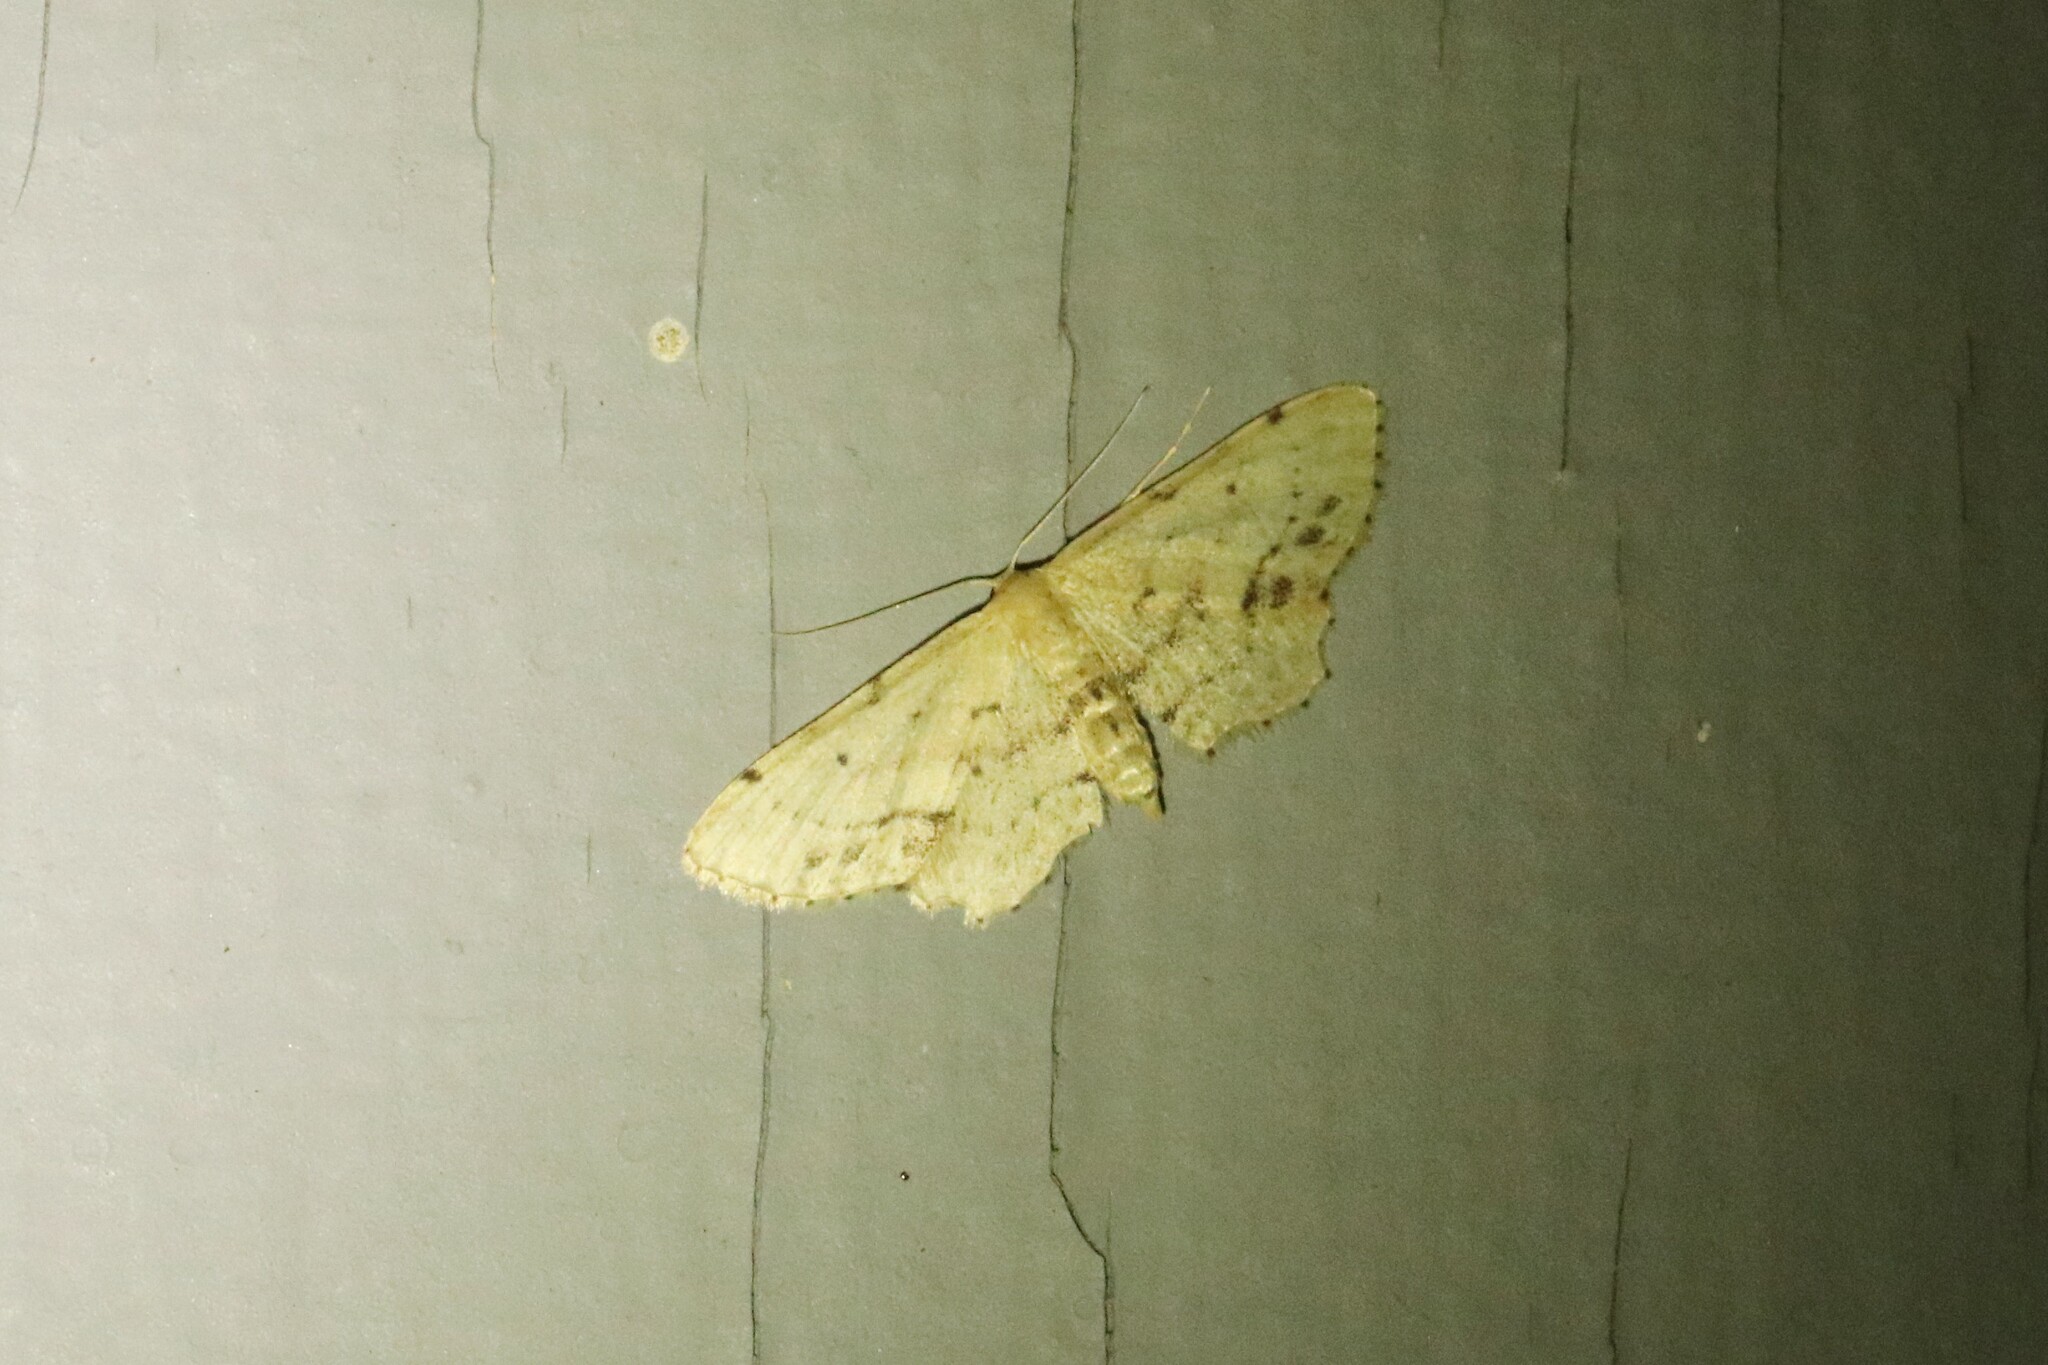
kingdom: Animalia
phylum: Arthropoda
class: Insecta
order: Lepidoptera
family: Geometridae
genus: Idaea
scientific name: Idaea dimidiata
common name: Single-dotted wave
